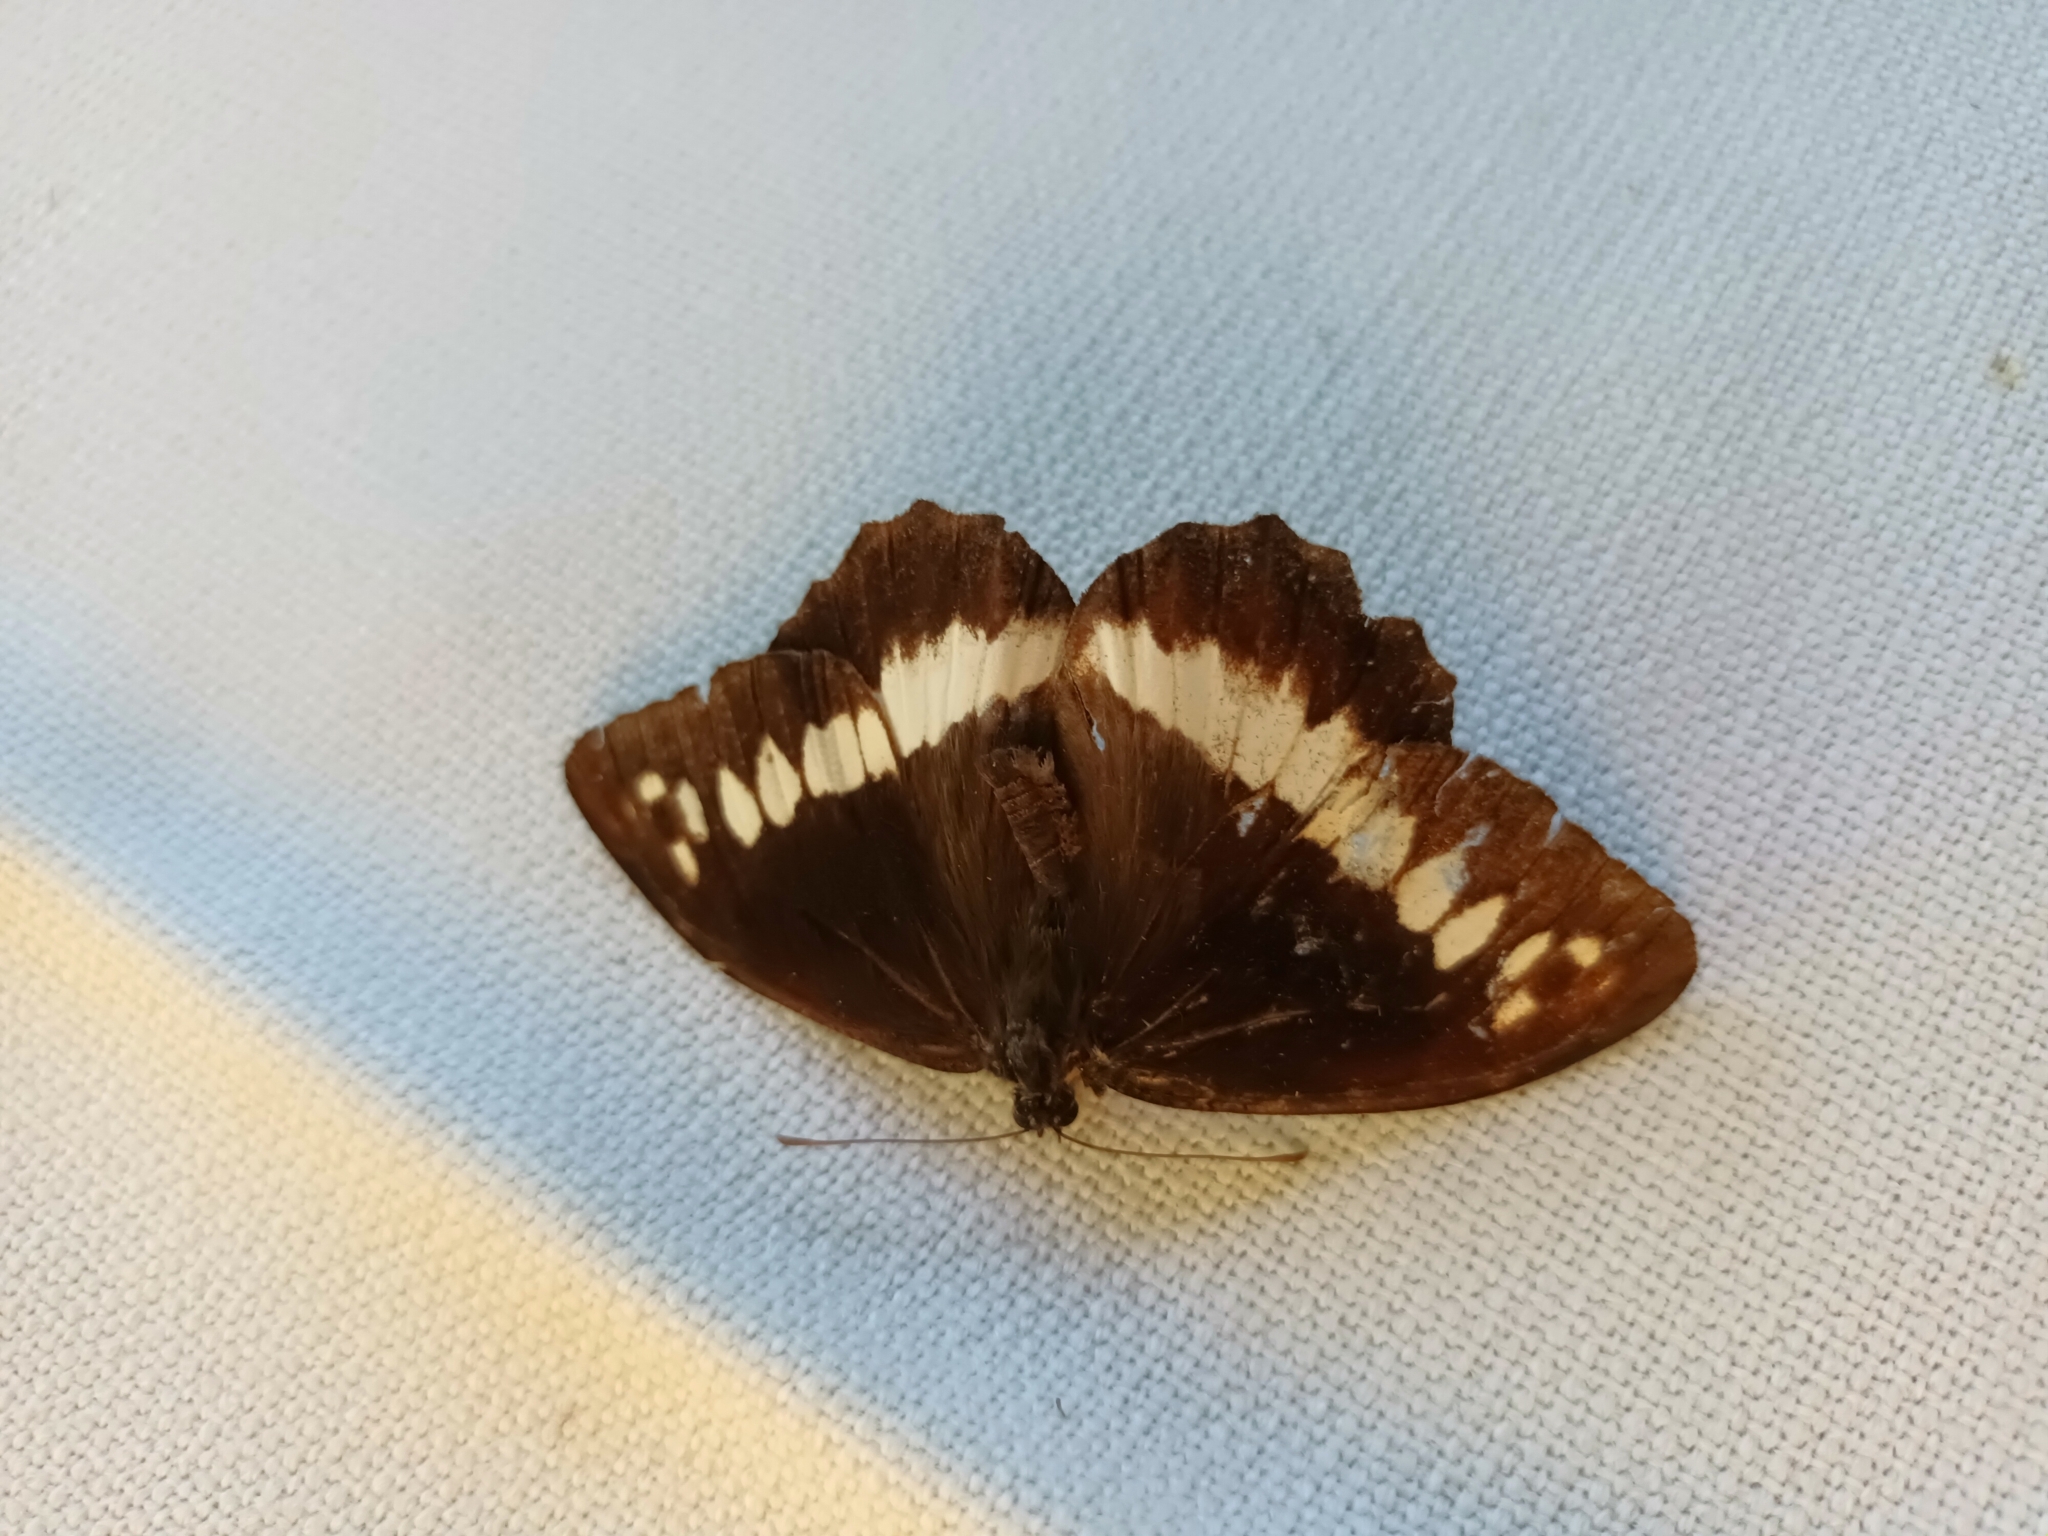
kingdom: Animalia
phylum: Arthropoda
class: Insecta
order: Lepidoptera
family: Lycaenidae
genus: Loweia
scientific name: Loweia tityrus
